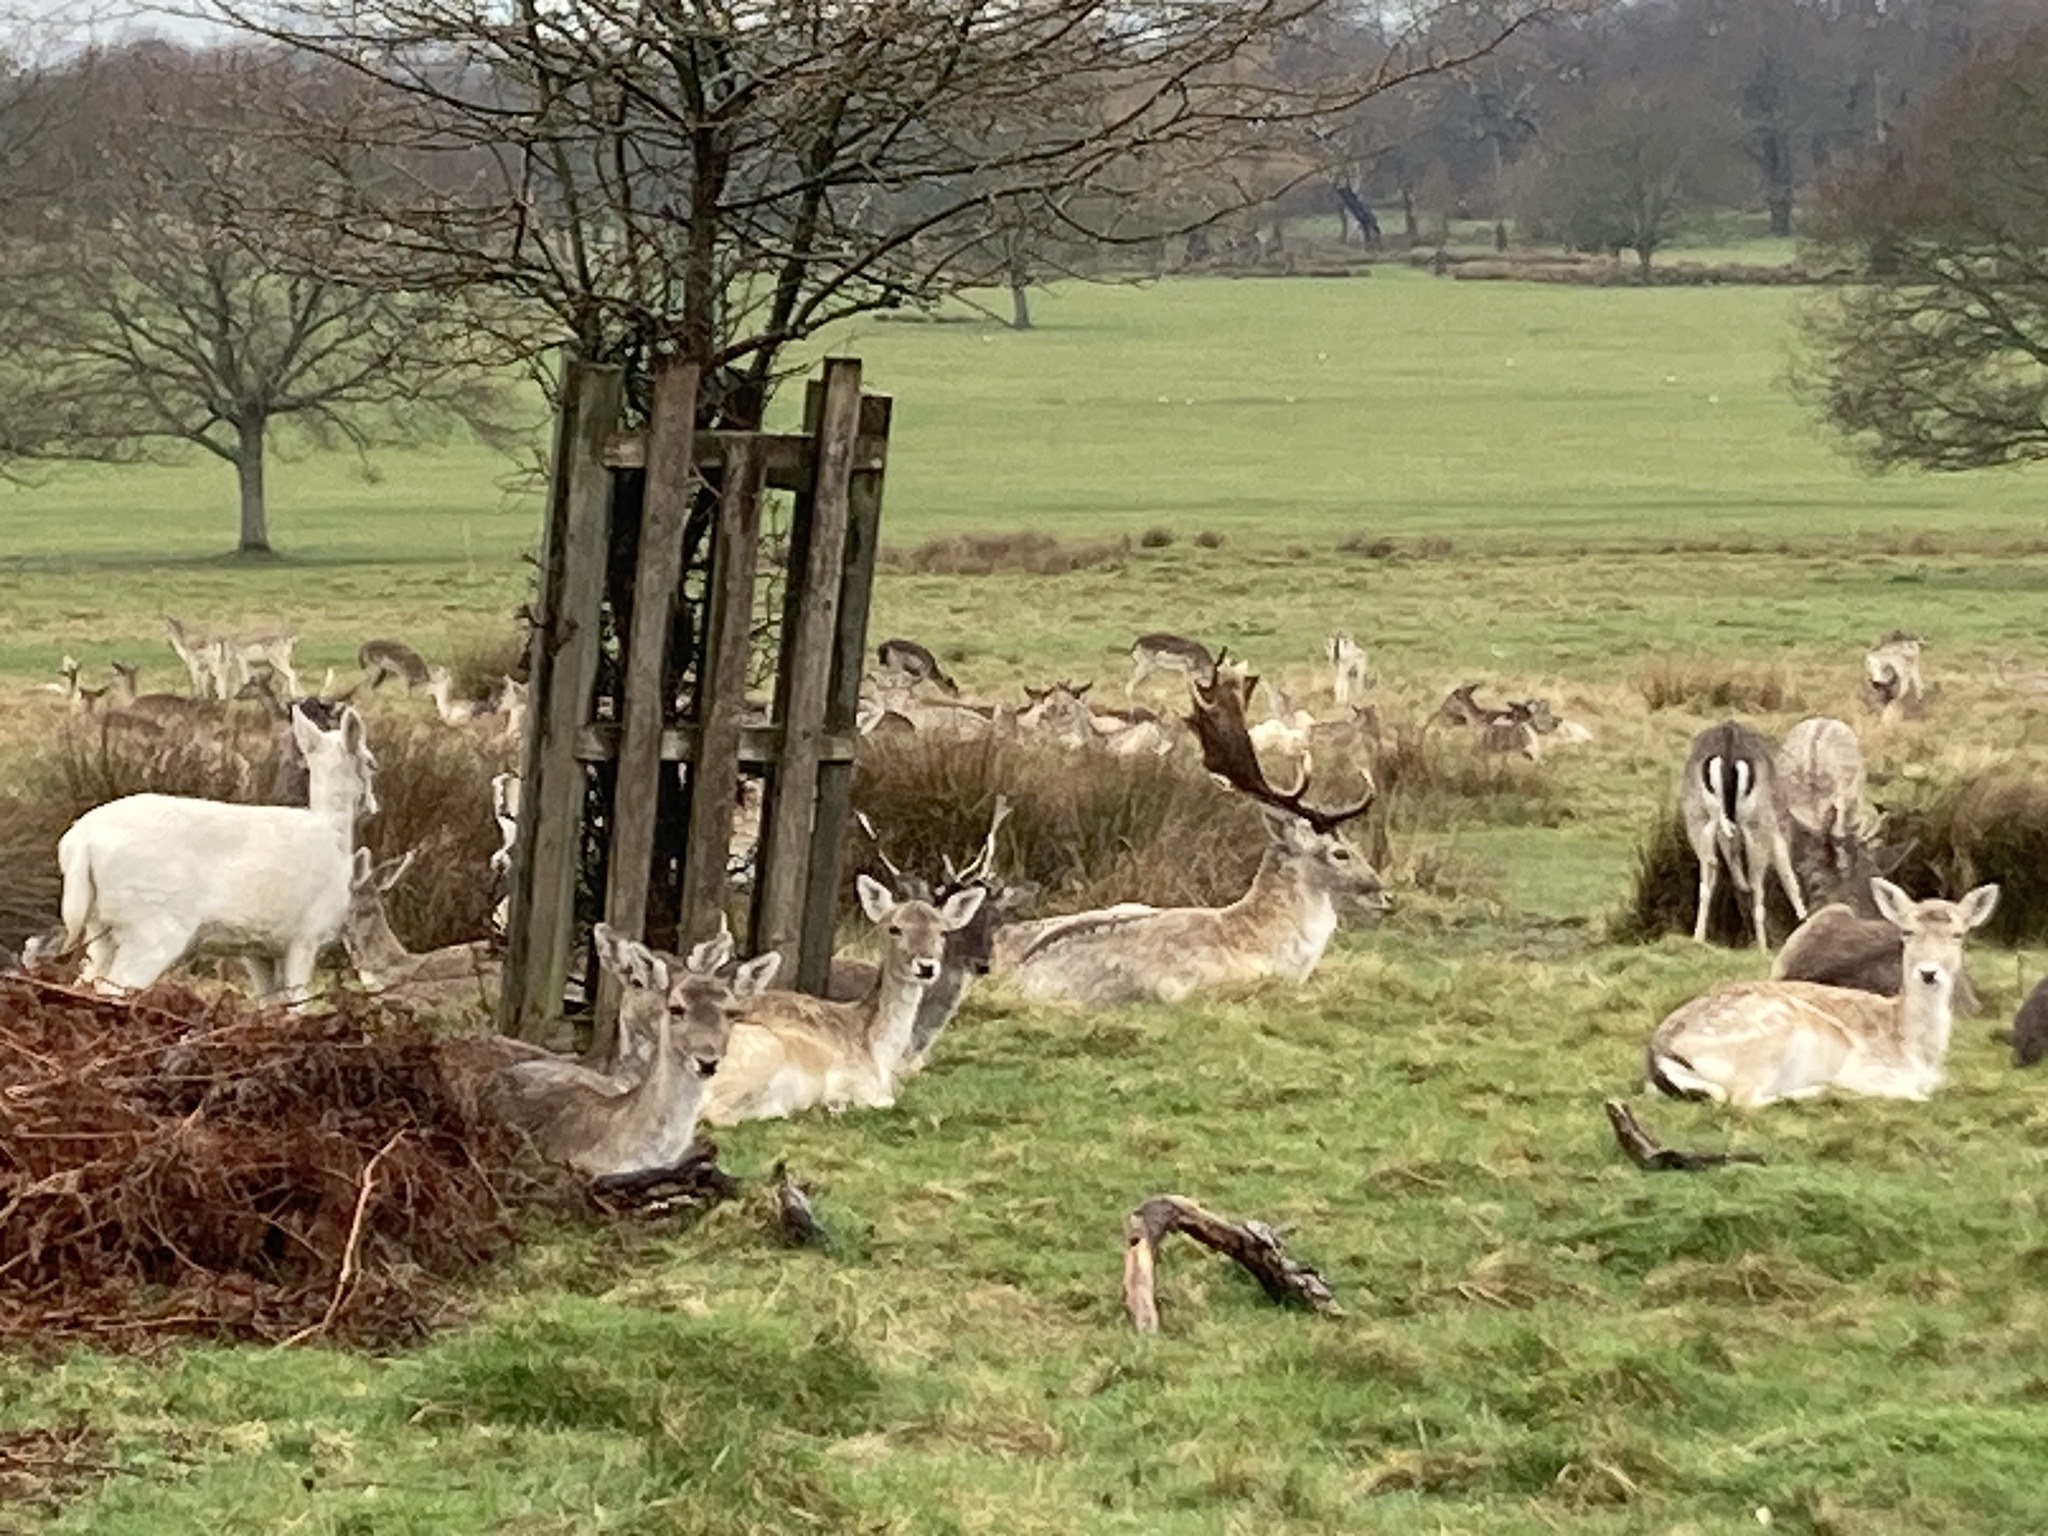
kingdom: Animalia
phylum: Chordata
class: Mammalia
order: Artiodactyla
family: Cervidae
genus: Dama
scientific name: Dama dama
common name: Fallow deer
